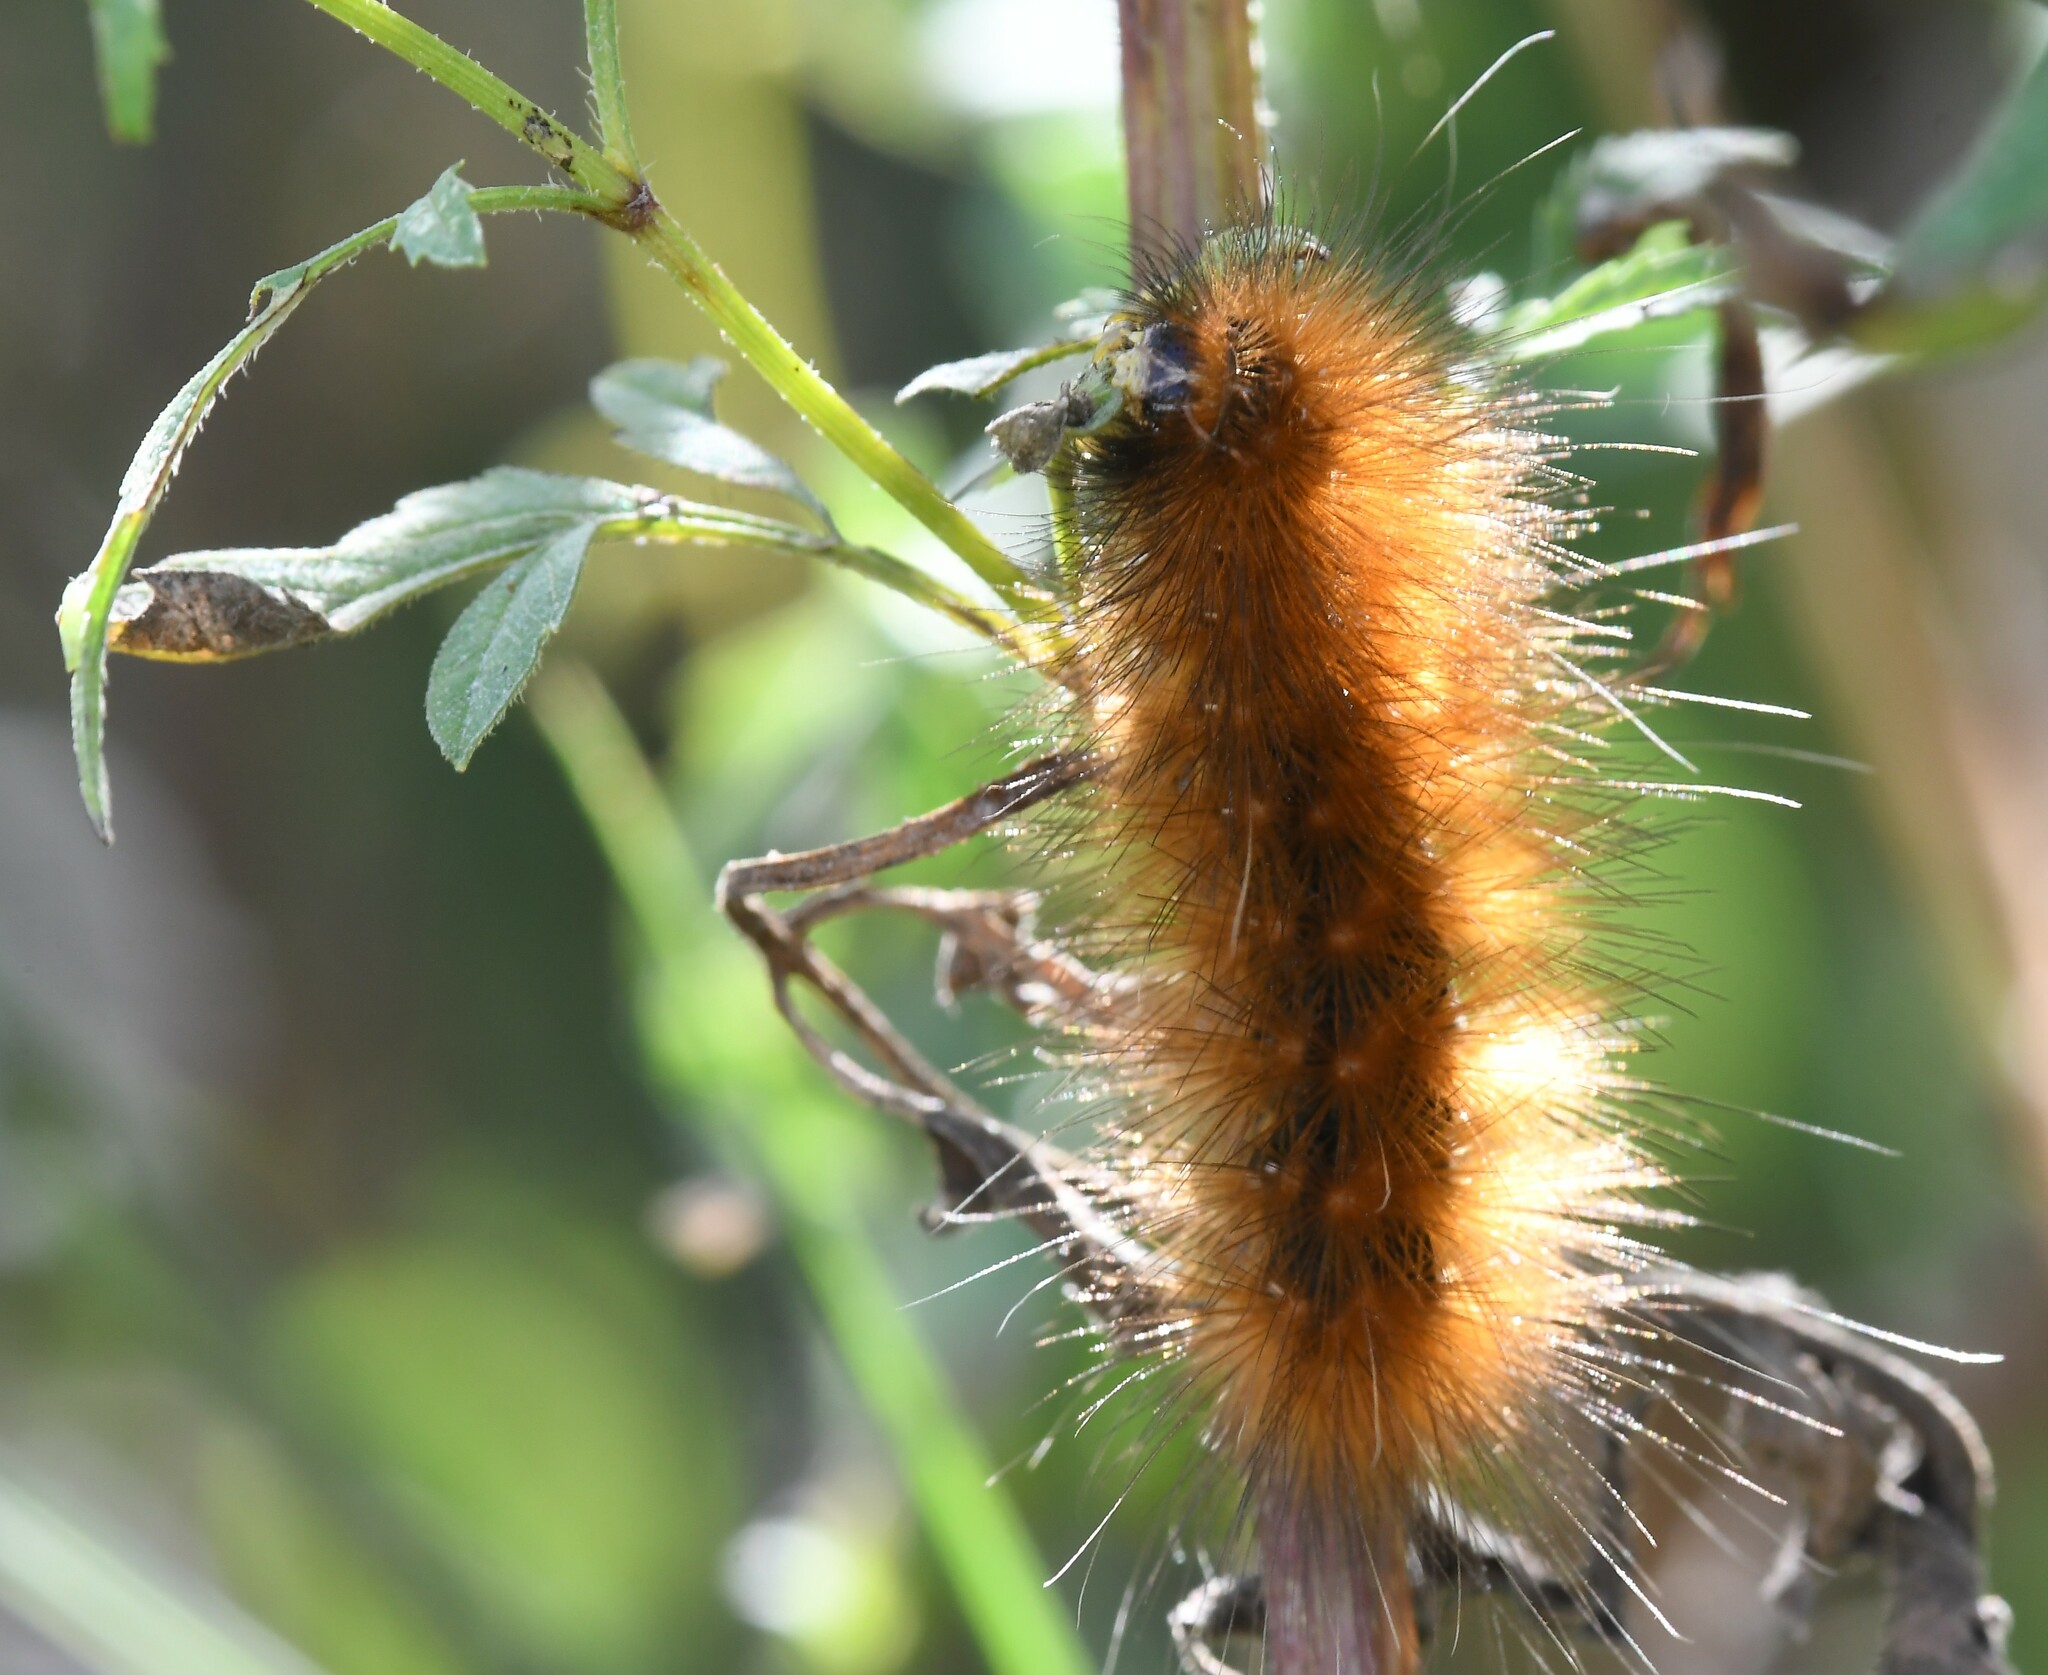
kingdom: Animalia
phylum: Arthropoda
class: Insecta
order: Lepidoptera
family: Erebidae
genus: Spilosoma
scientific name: Spilosoma virginica
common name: Virginia tiger moth
